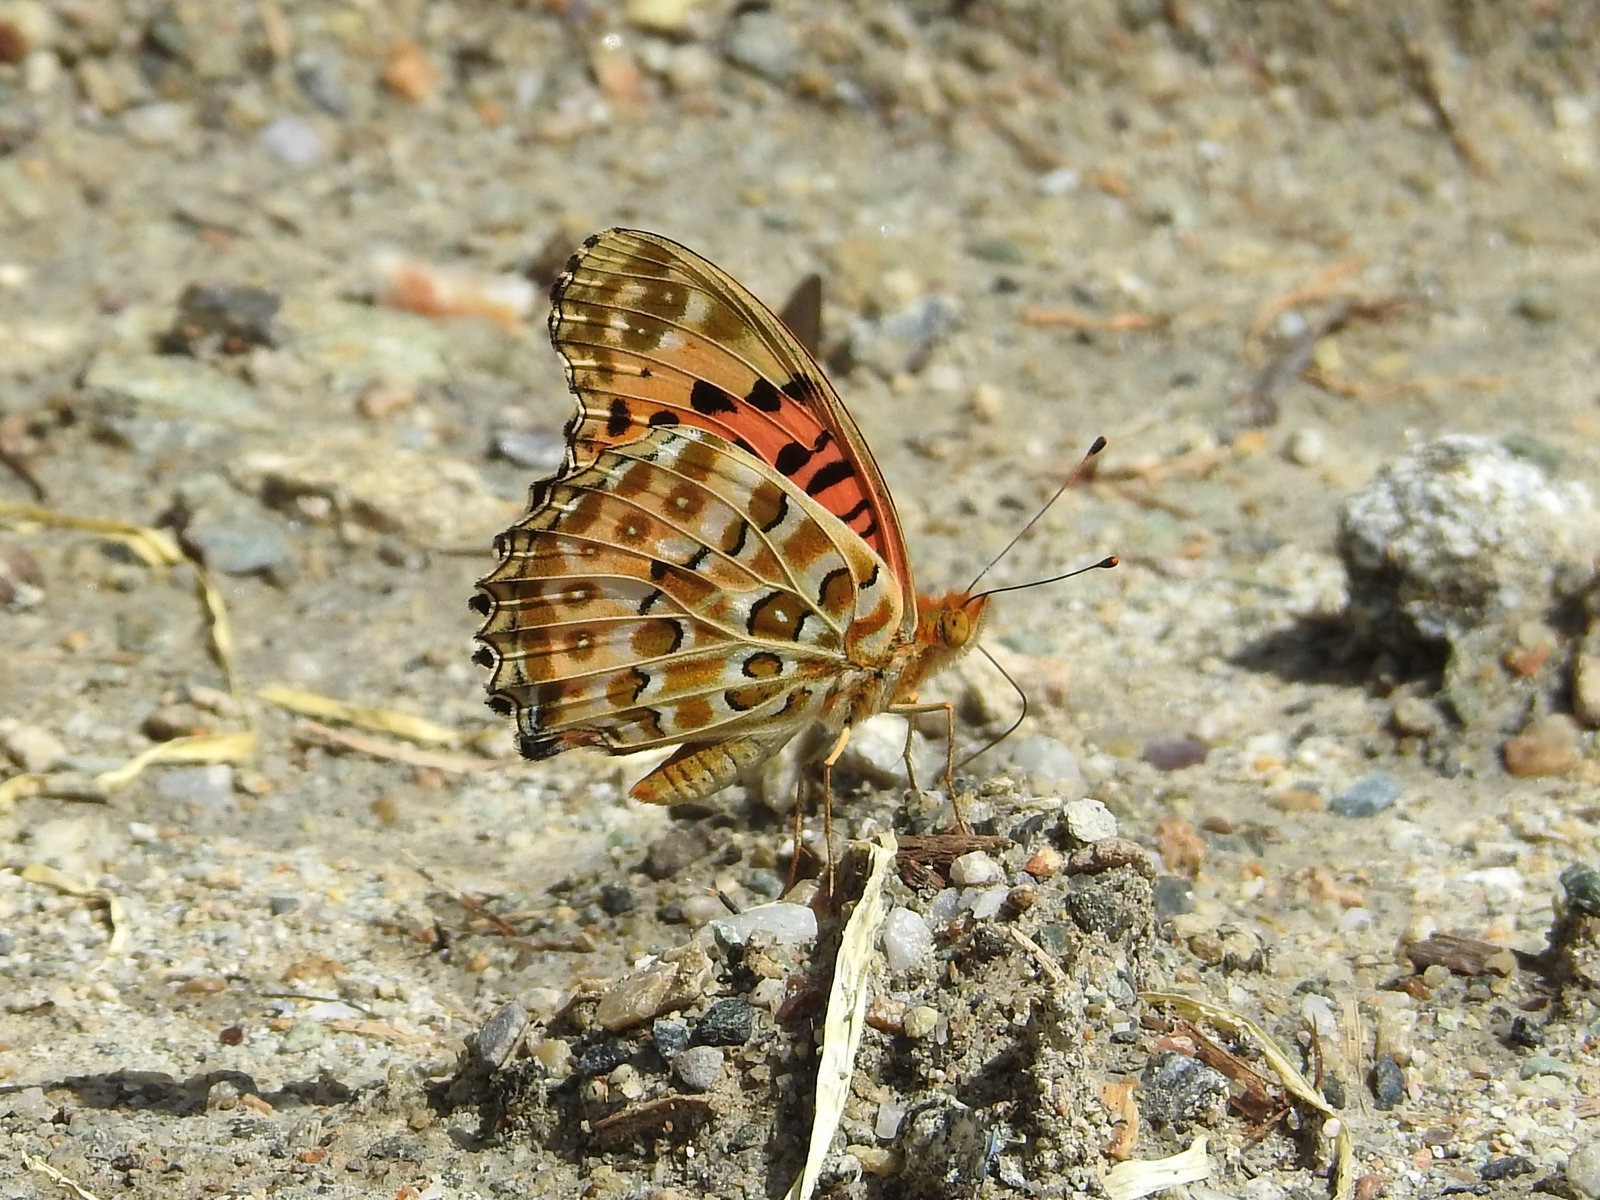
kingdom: Animalia
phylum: Arthropoda
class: Insecta
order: Lepidoptera
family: Nymphalidae
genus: Argynnis
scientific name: Argynnis hyperbius
